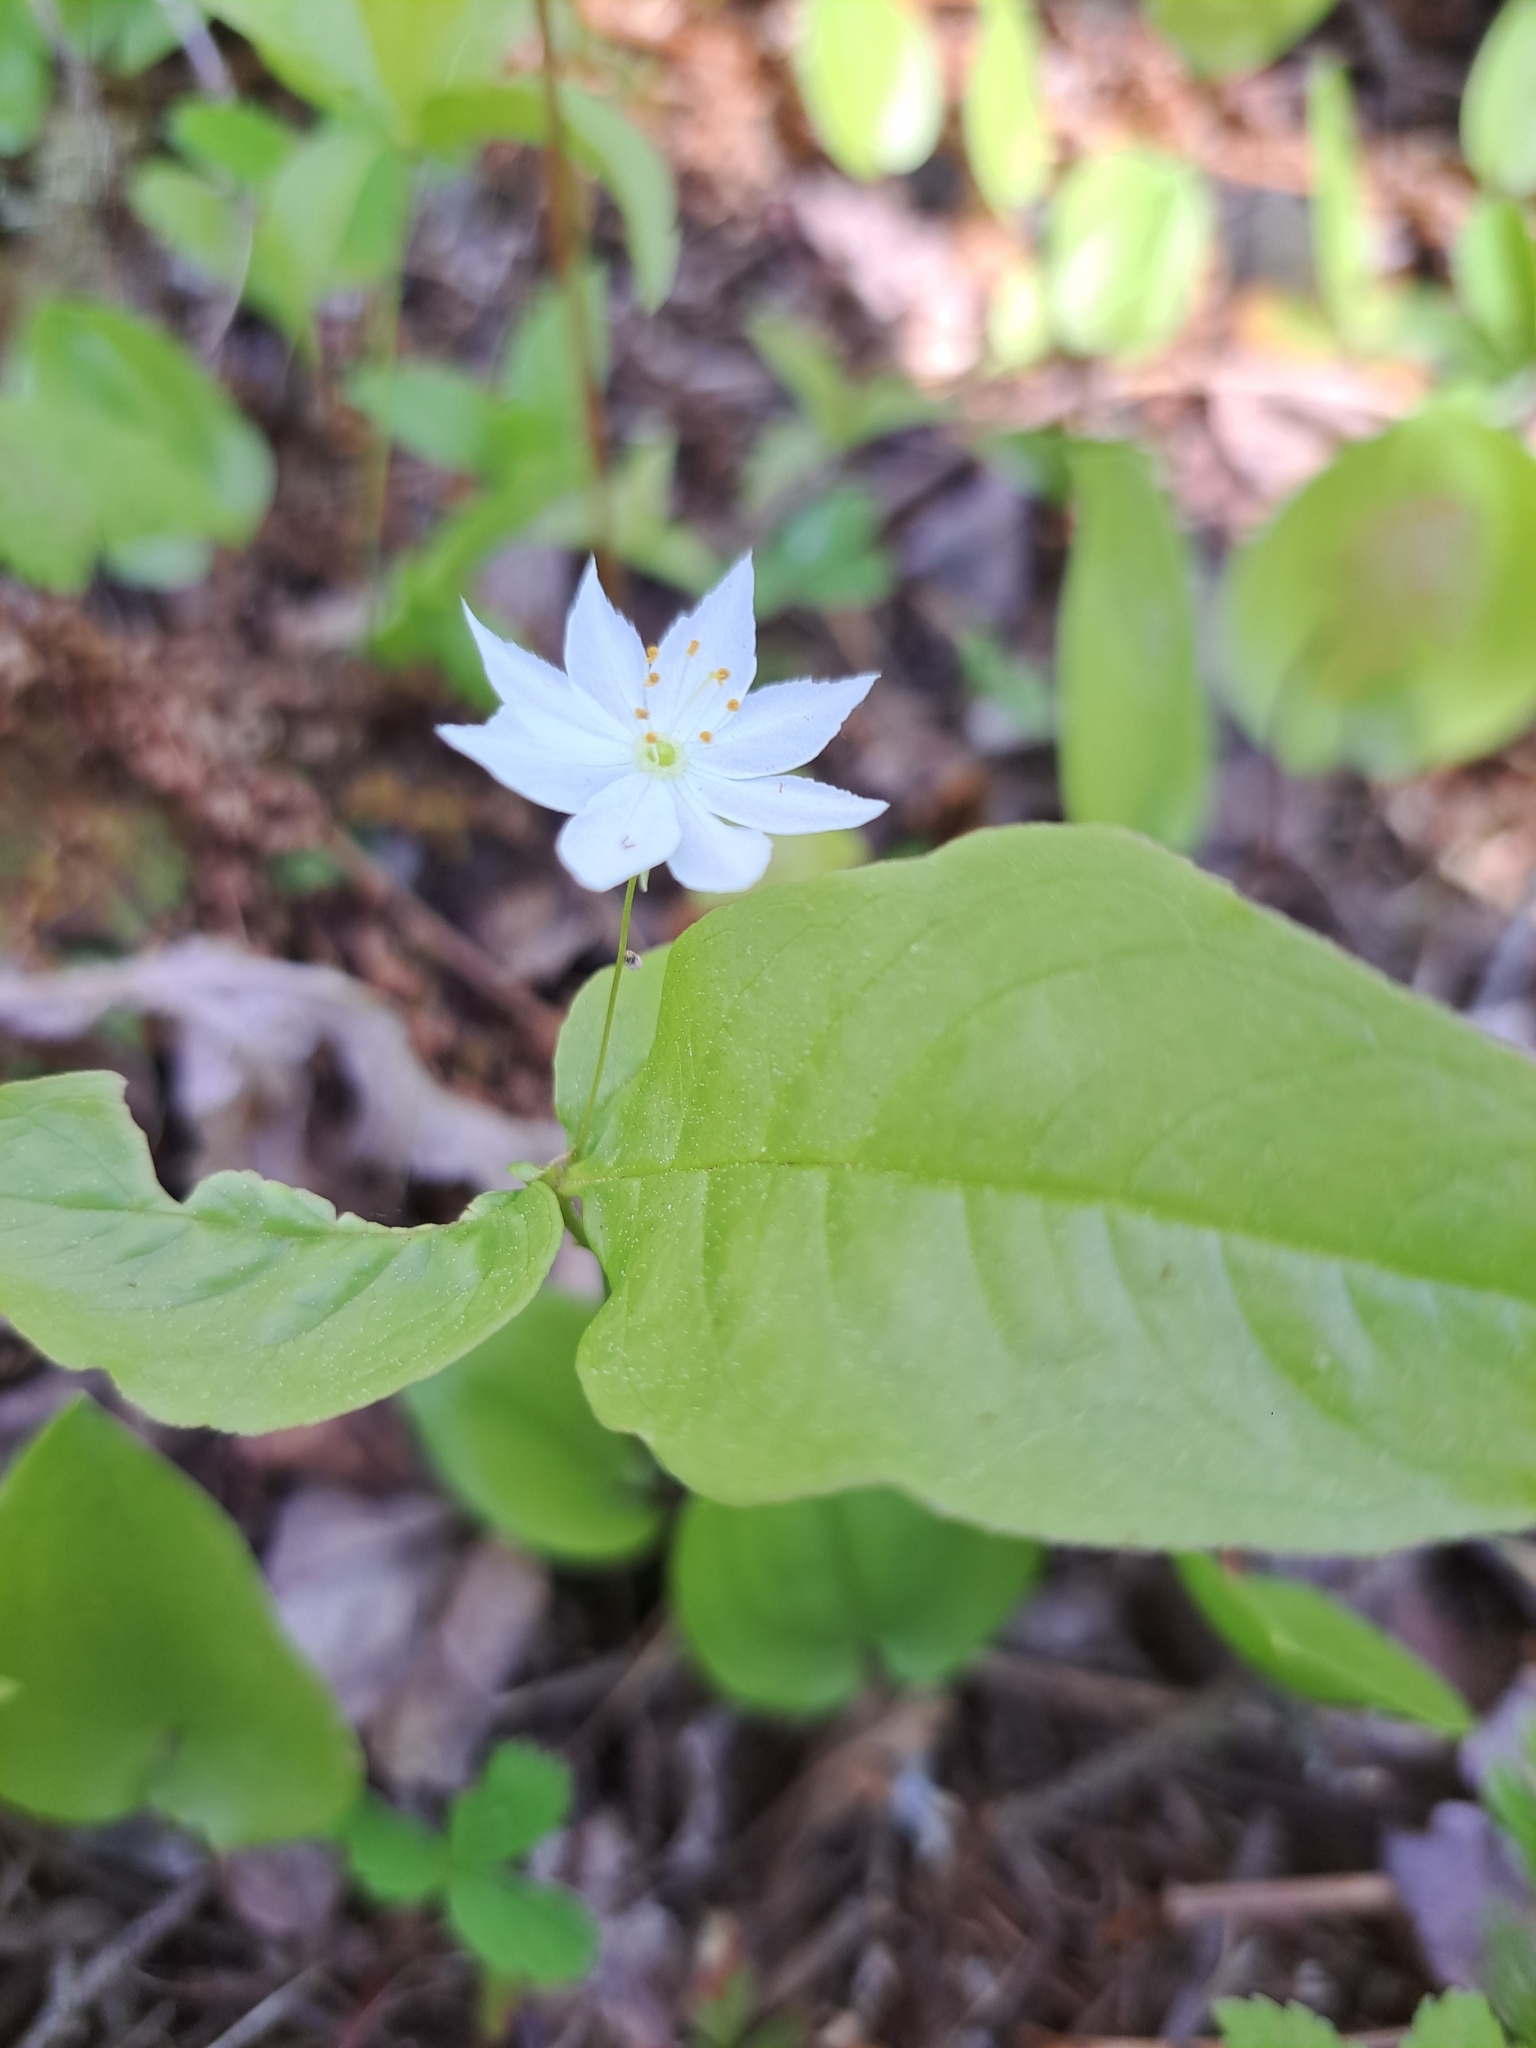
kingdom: Plantae
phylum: Tracheophyta
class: Magnoliopsida
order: Ericales
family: Primulaceae
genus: Lysimachia
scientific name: Lysimachia borealis
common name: American starflower
